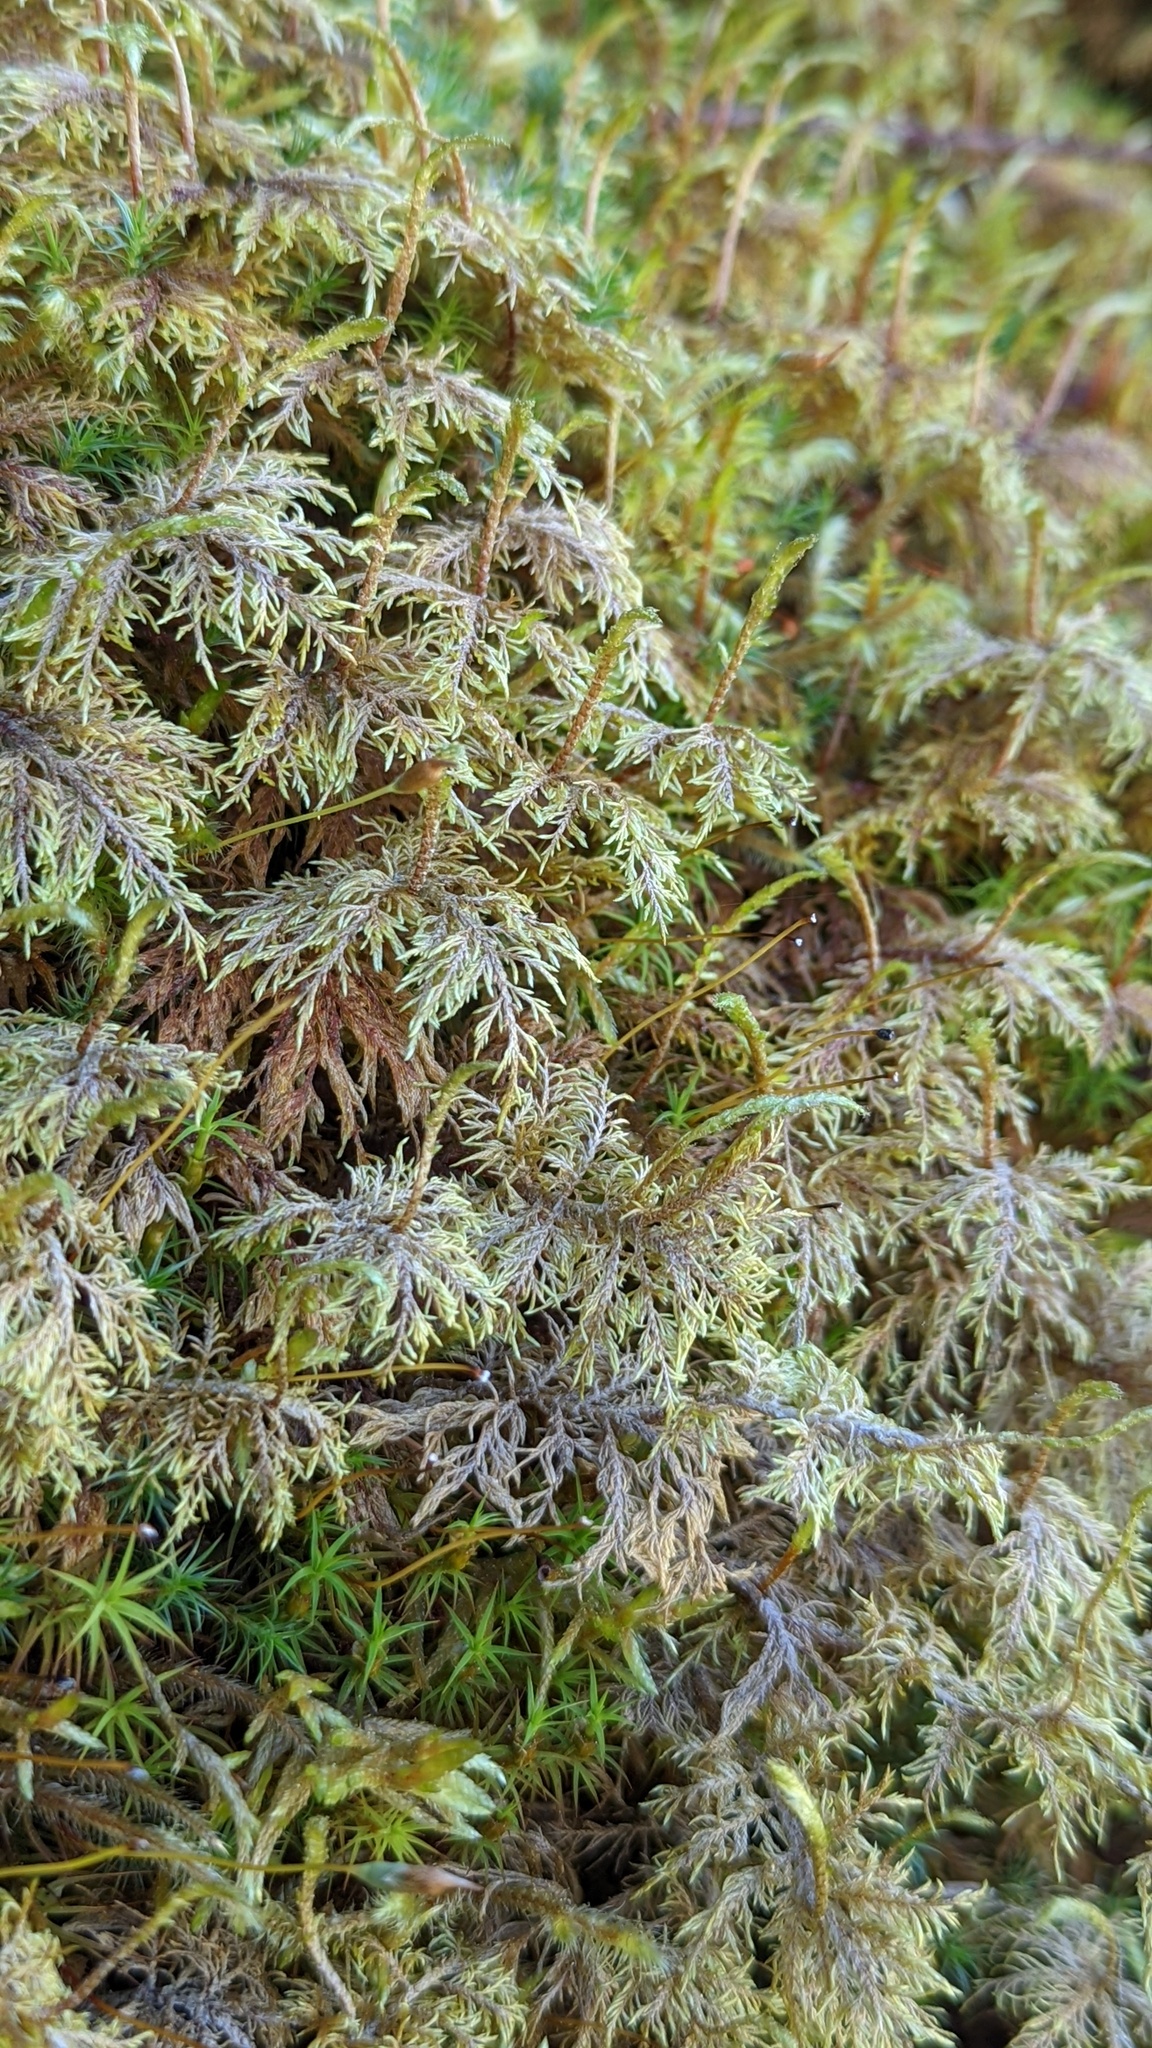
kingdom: Plantae
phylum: Bryophyta
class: Bryopsida
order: Hypnales
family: Hylocomiaceae
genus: Hylocomium
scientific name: Hylocomium splendens
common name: Stairstep moss
